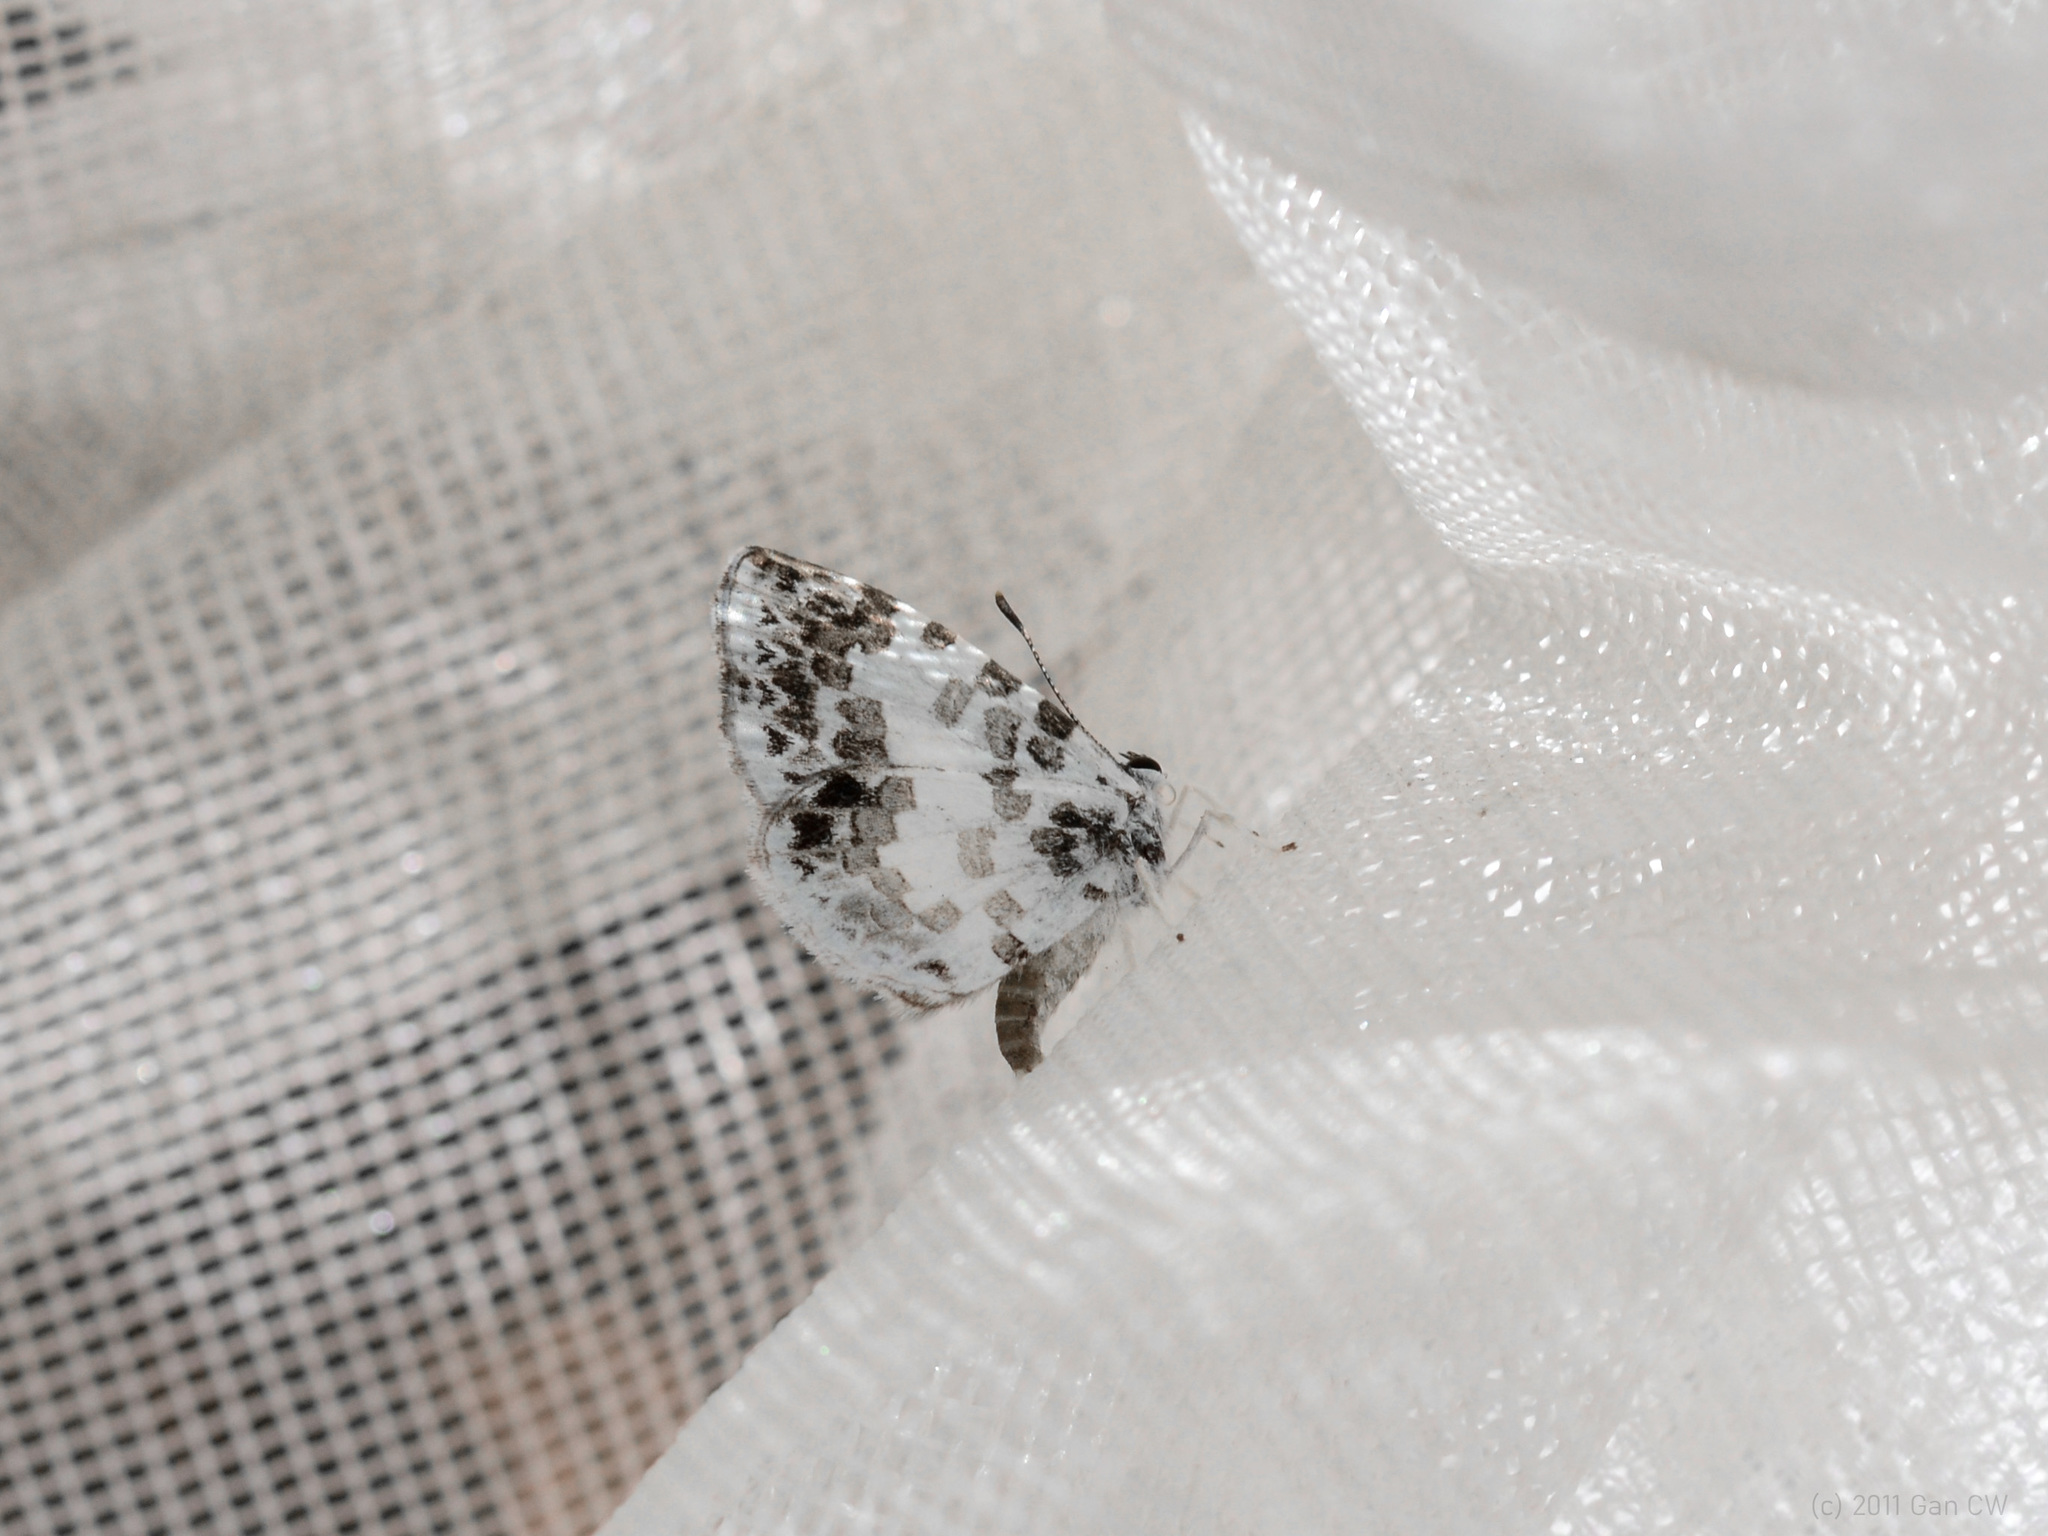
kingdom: Animalia
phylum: Arthropoda
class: Insecta
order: Lepidoptera
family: Lycaenidae
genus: Taraka
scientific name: Taraka mahanetra
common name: Lesser pierrot
